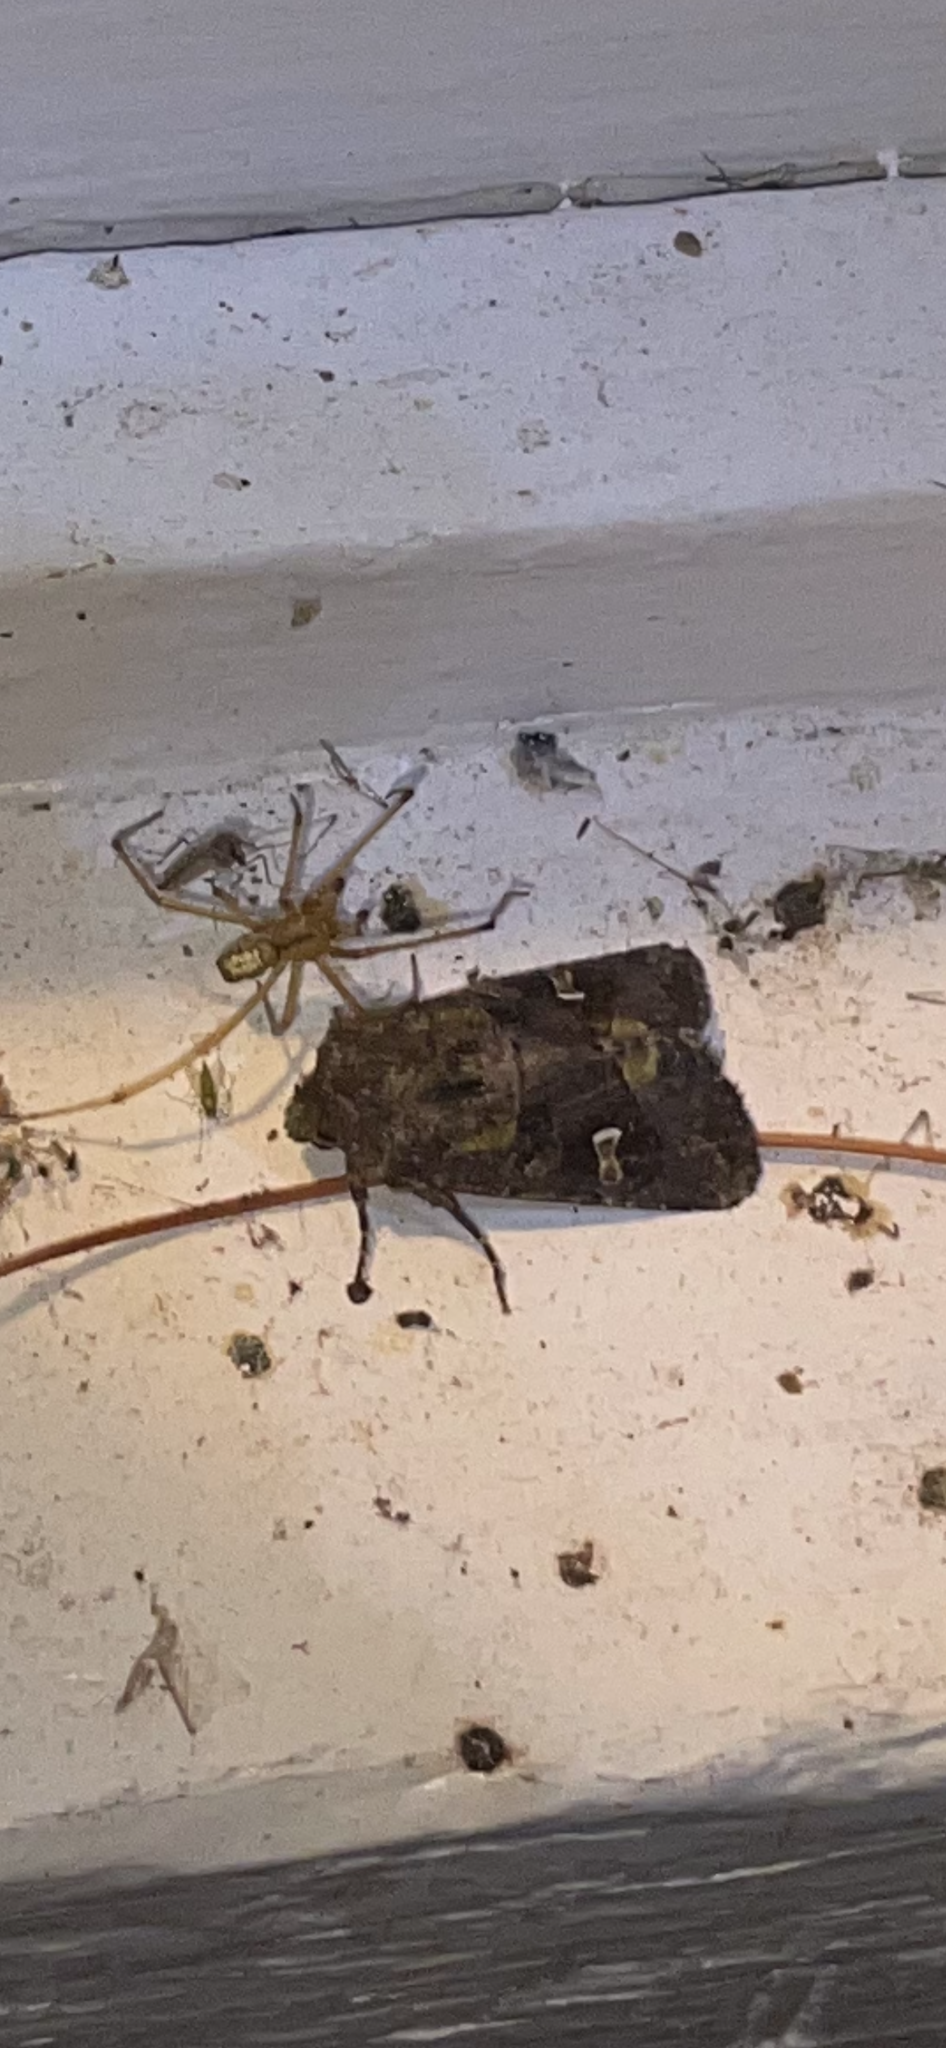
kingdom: Animalia
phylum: Arthropoda
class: Insecta
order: Lepidoptera
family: Noctuidae
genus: Lacinipolia
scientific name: Lacinipolia renigera
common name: Kidney-spotted minor
